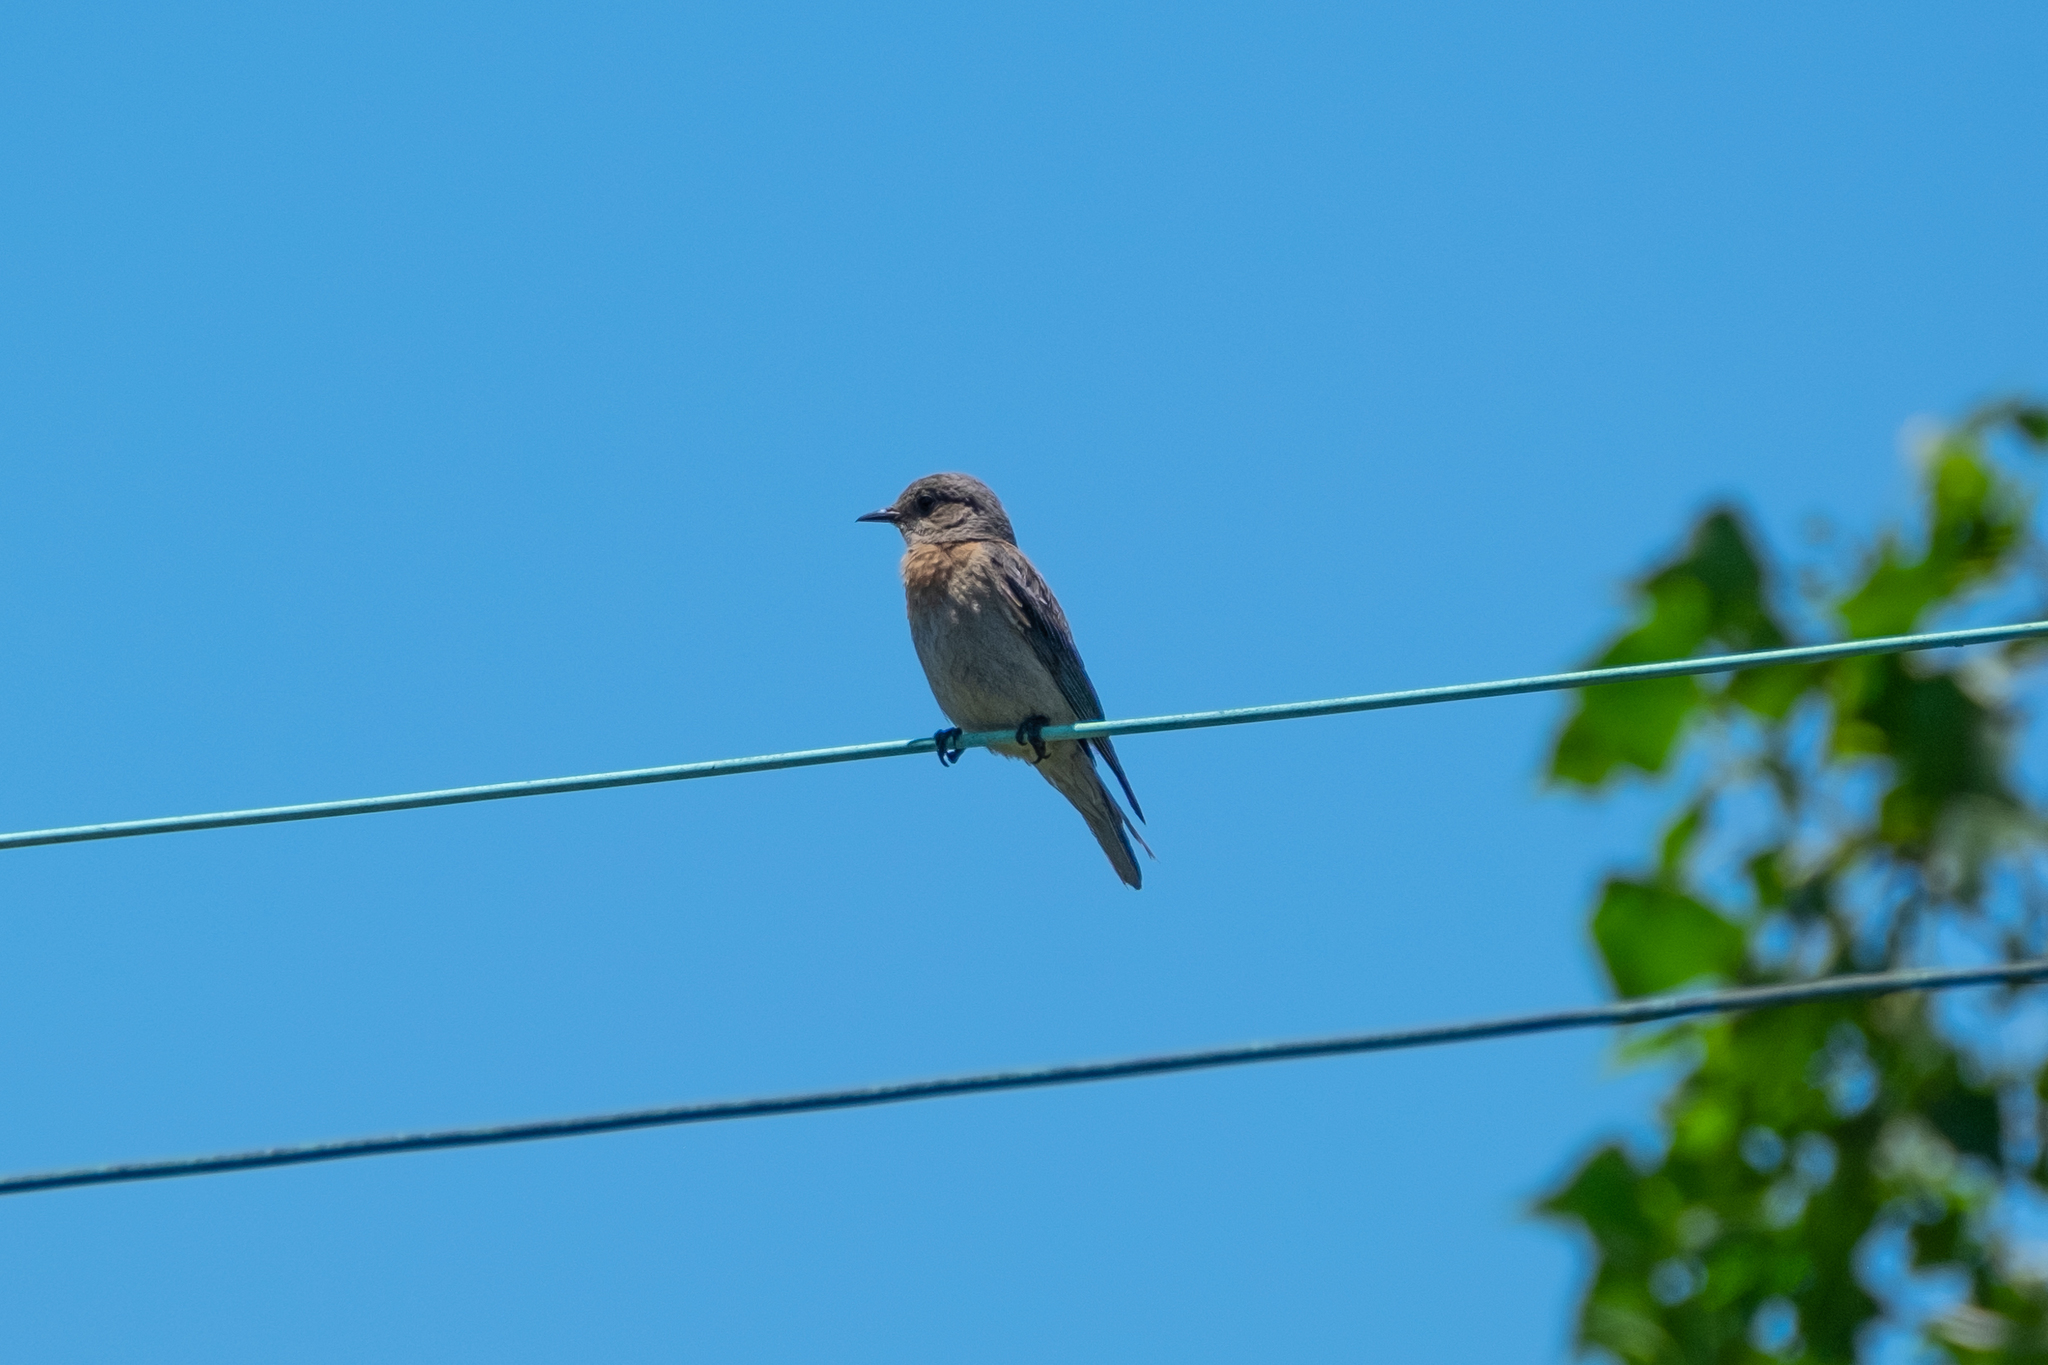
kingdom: Animalia
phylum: Chordata
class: Aves
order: Passeriformes
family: Turdidae
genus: Sialia
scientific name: Sialia mexicana
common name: Western bluebird
